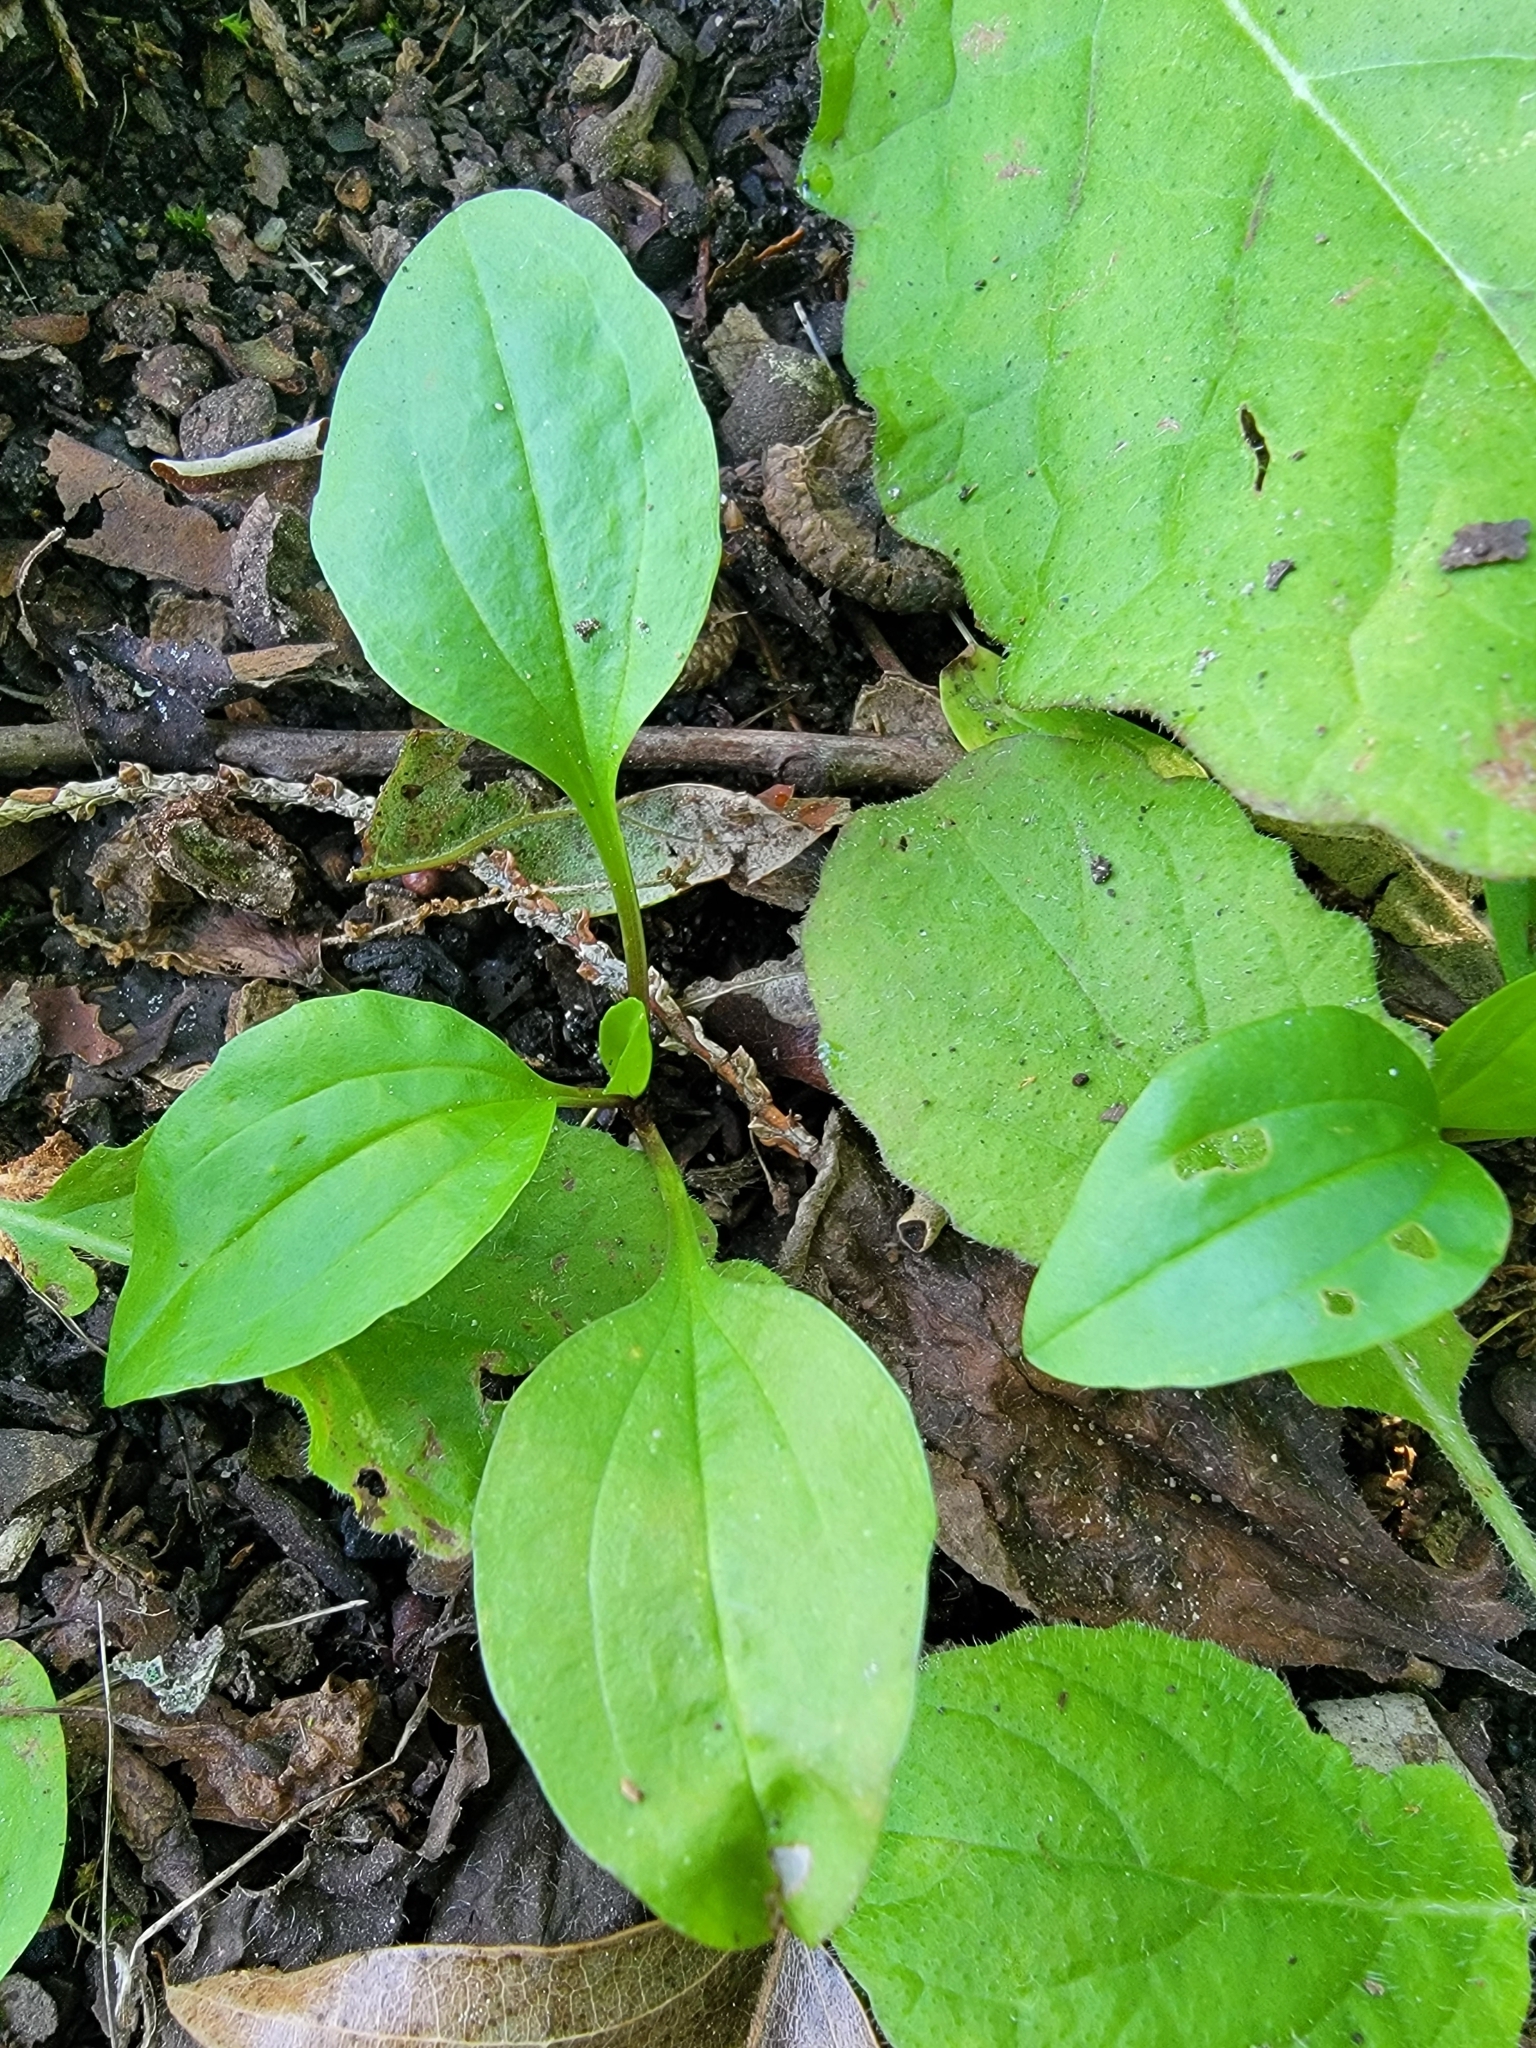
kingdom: Plantae
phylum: Tracheophyta
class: Magnoliopsida
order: Lamiales
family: Plantaginaceae
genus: Plantago
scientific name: Plantago major
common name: Common plantain
